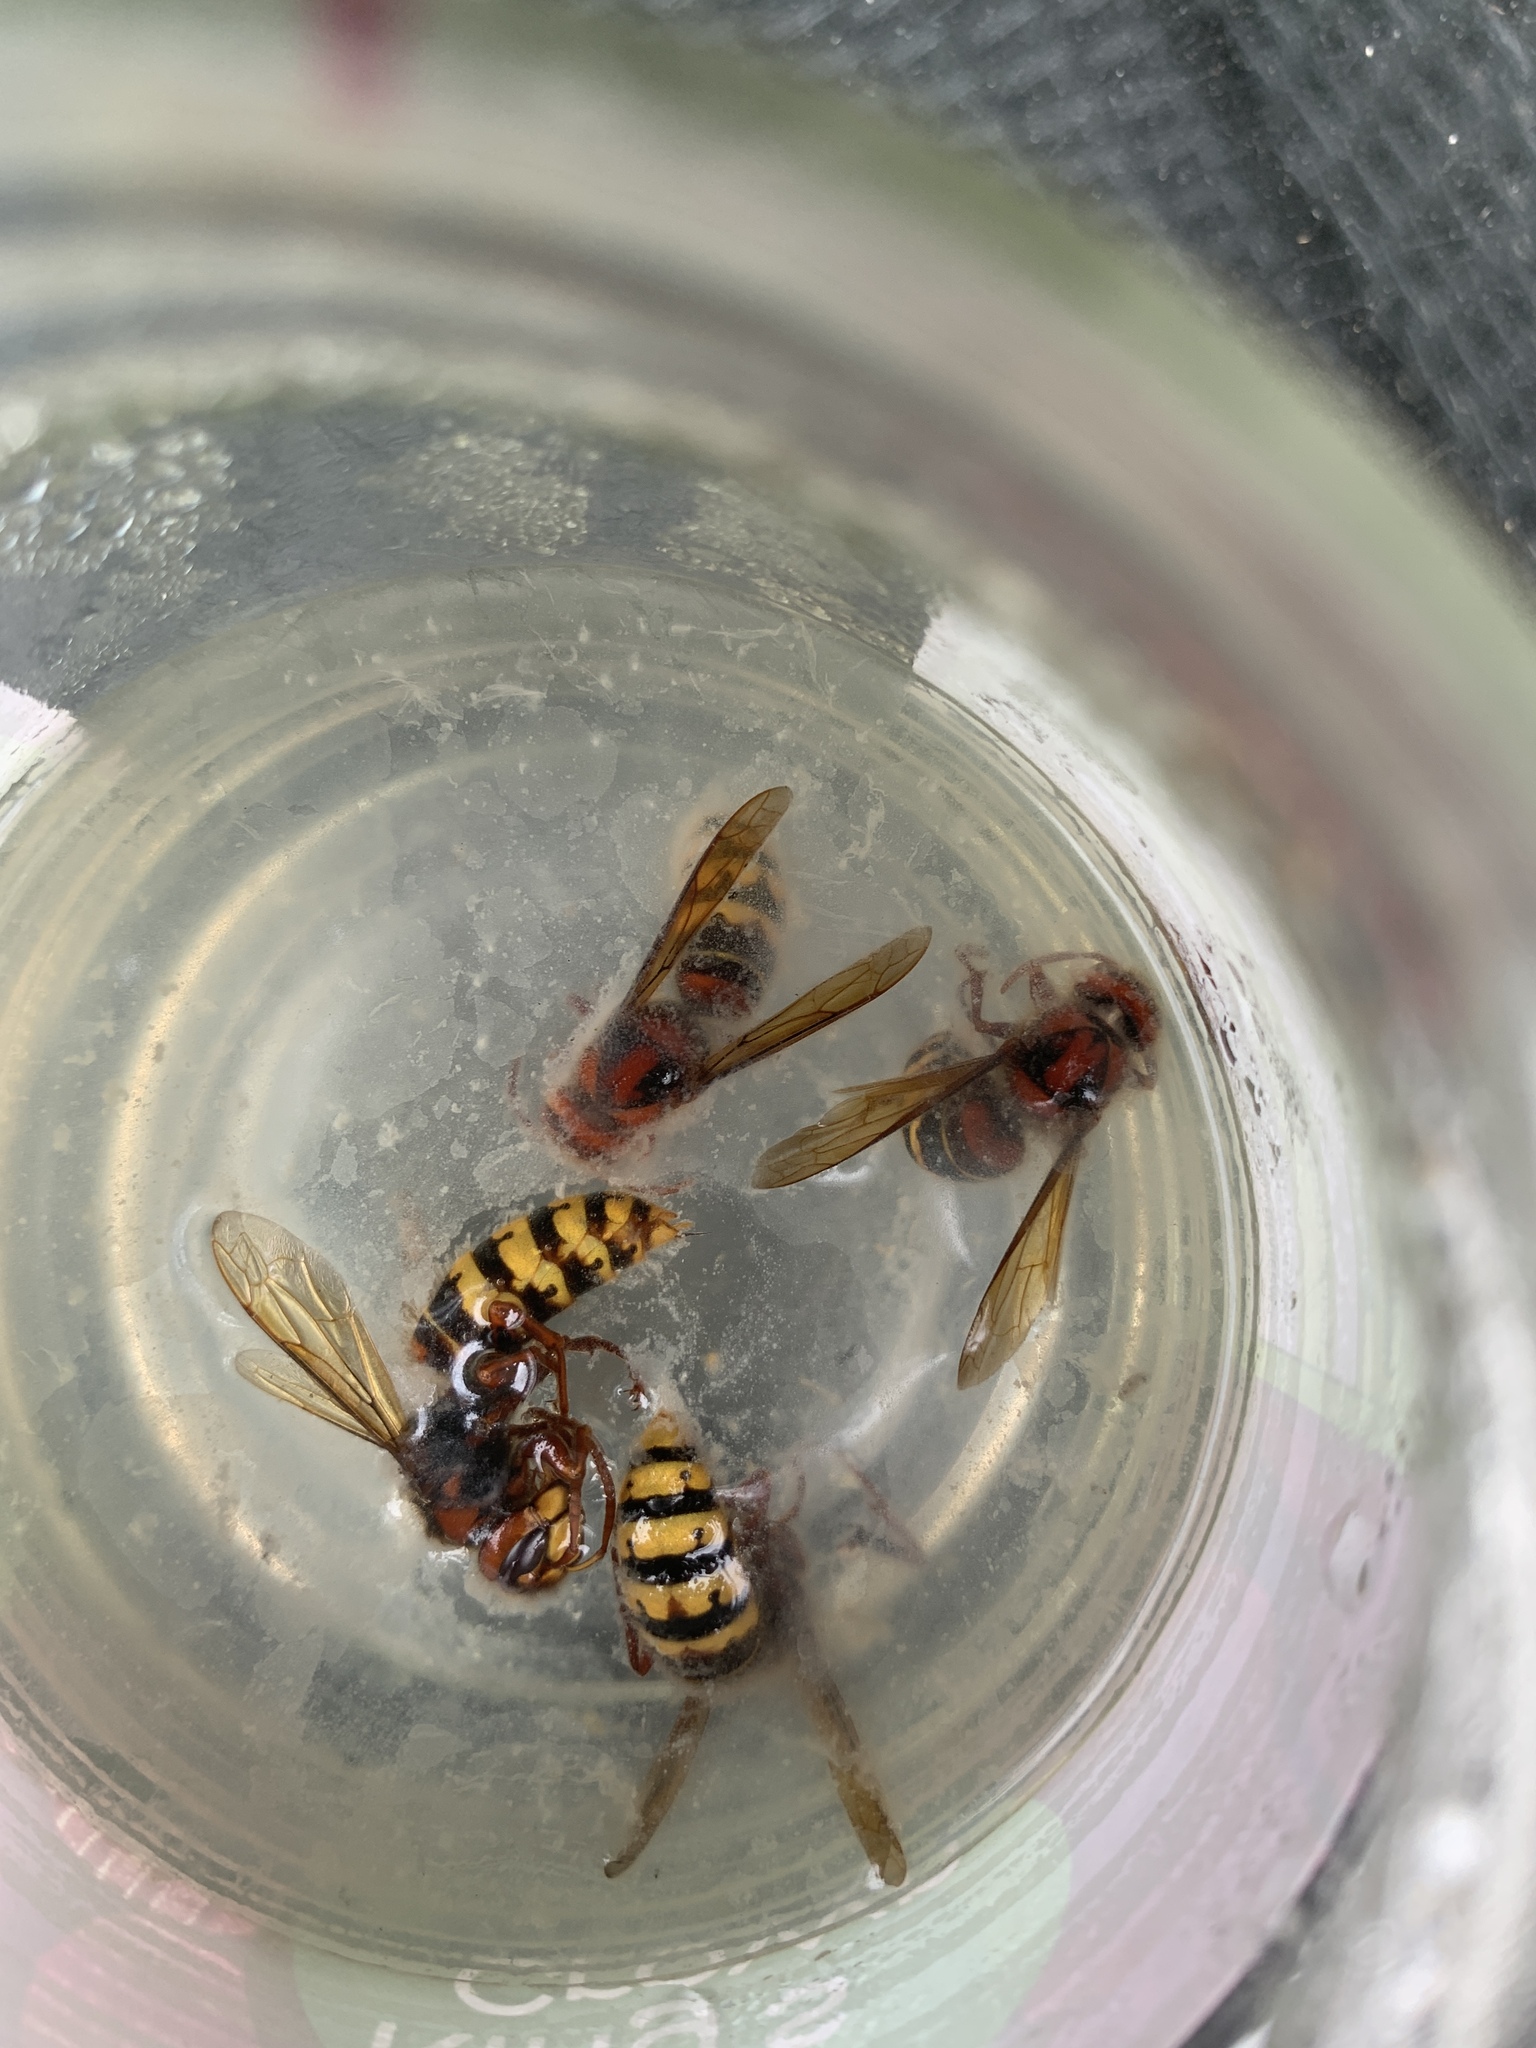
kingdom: Animalia
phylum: Arthropoda
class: Insecta
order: Hymenoptera
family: Vespidae
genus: Vespa
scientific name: Vespa crabro
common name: Hornet
